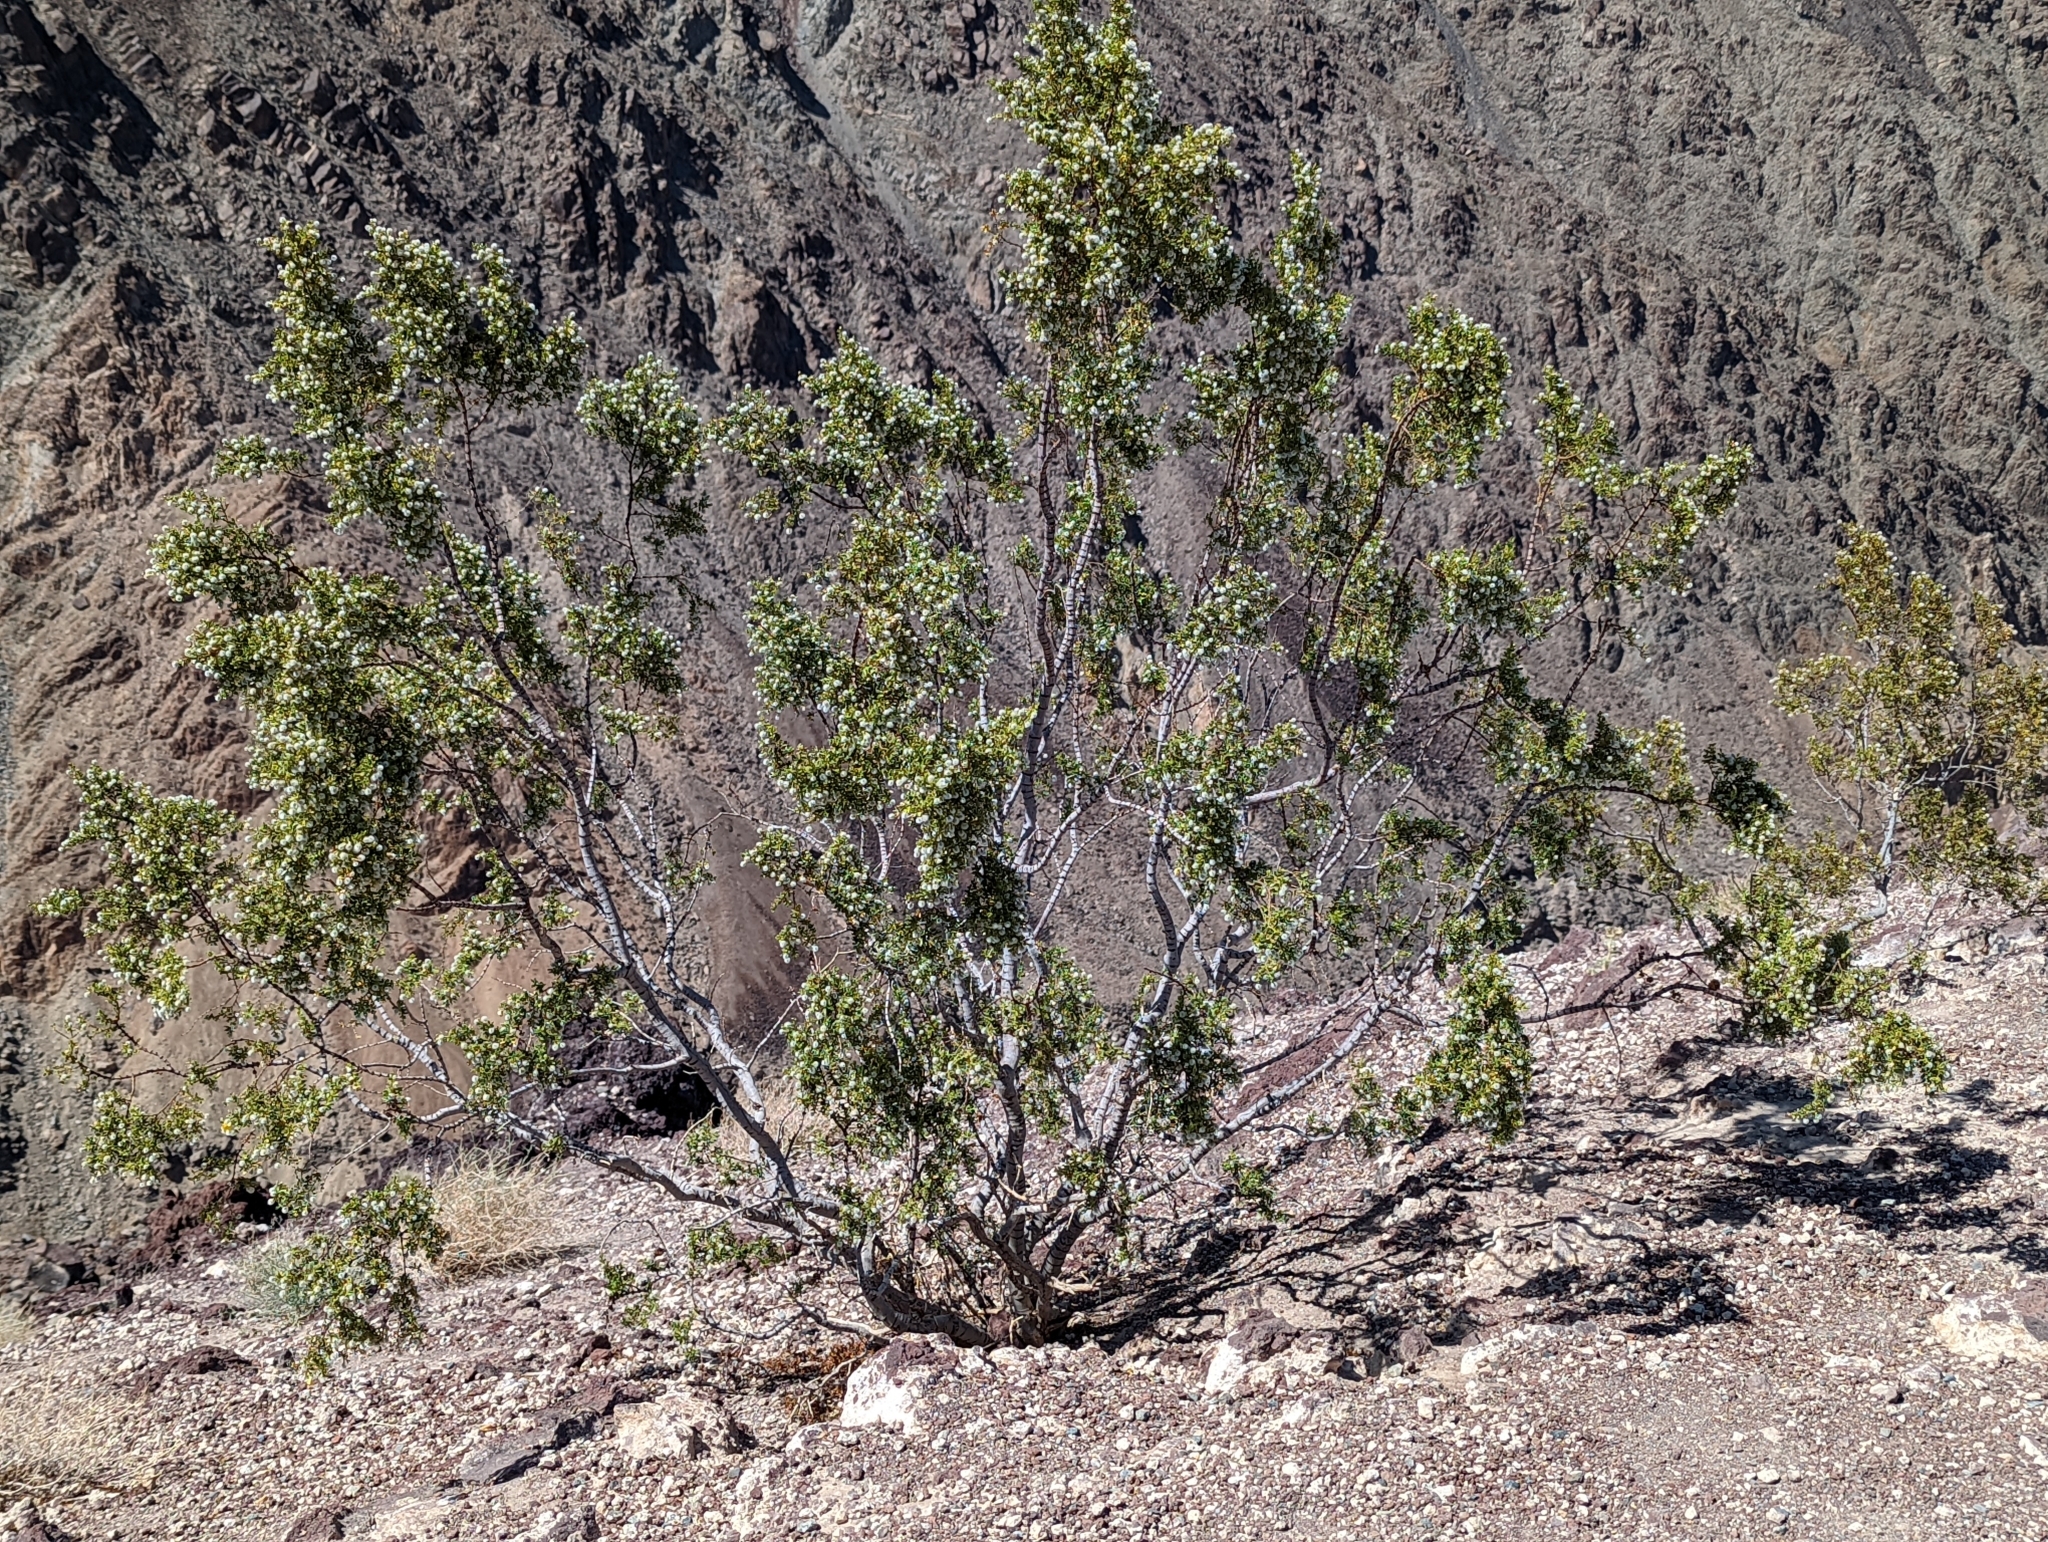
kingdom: Plantae
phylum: Tracheophyta
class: Magnoliopsida
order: Zygophyllales
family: Zygophyllaceae
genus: Larrea
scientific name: Larrea tridentata
